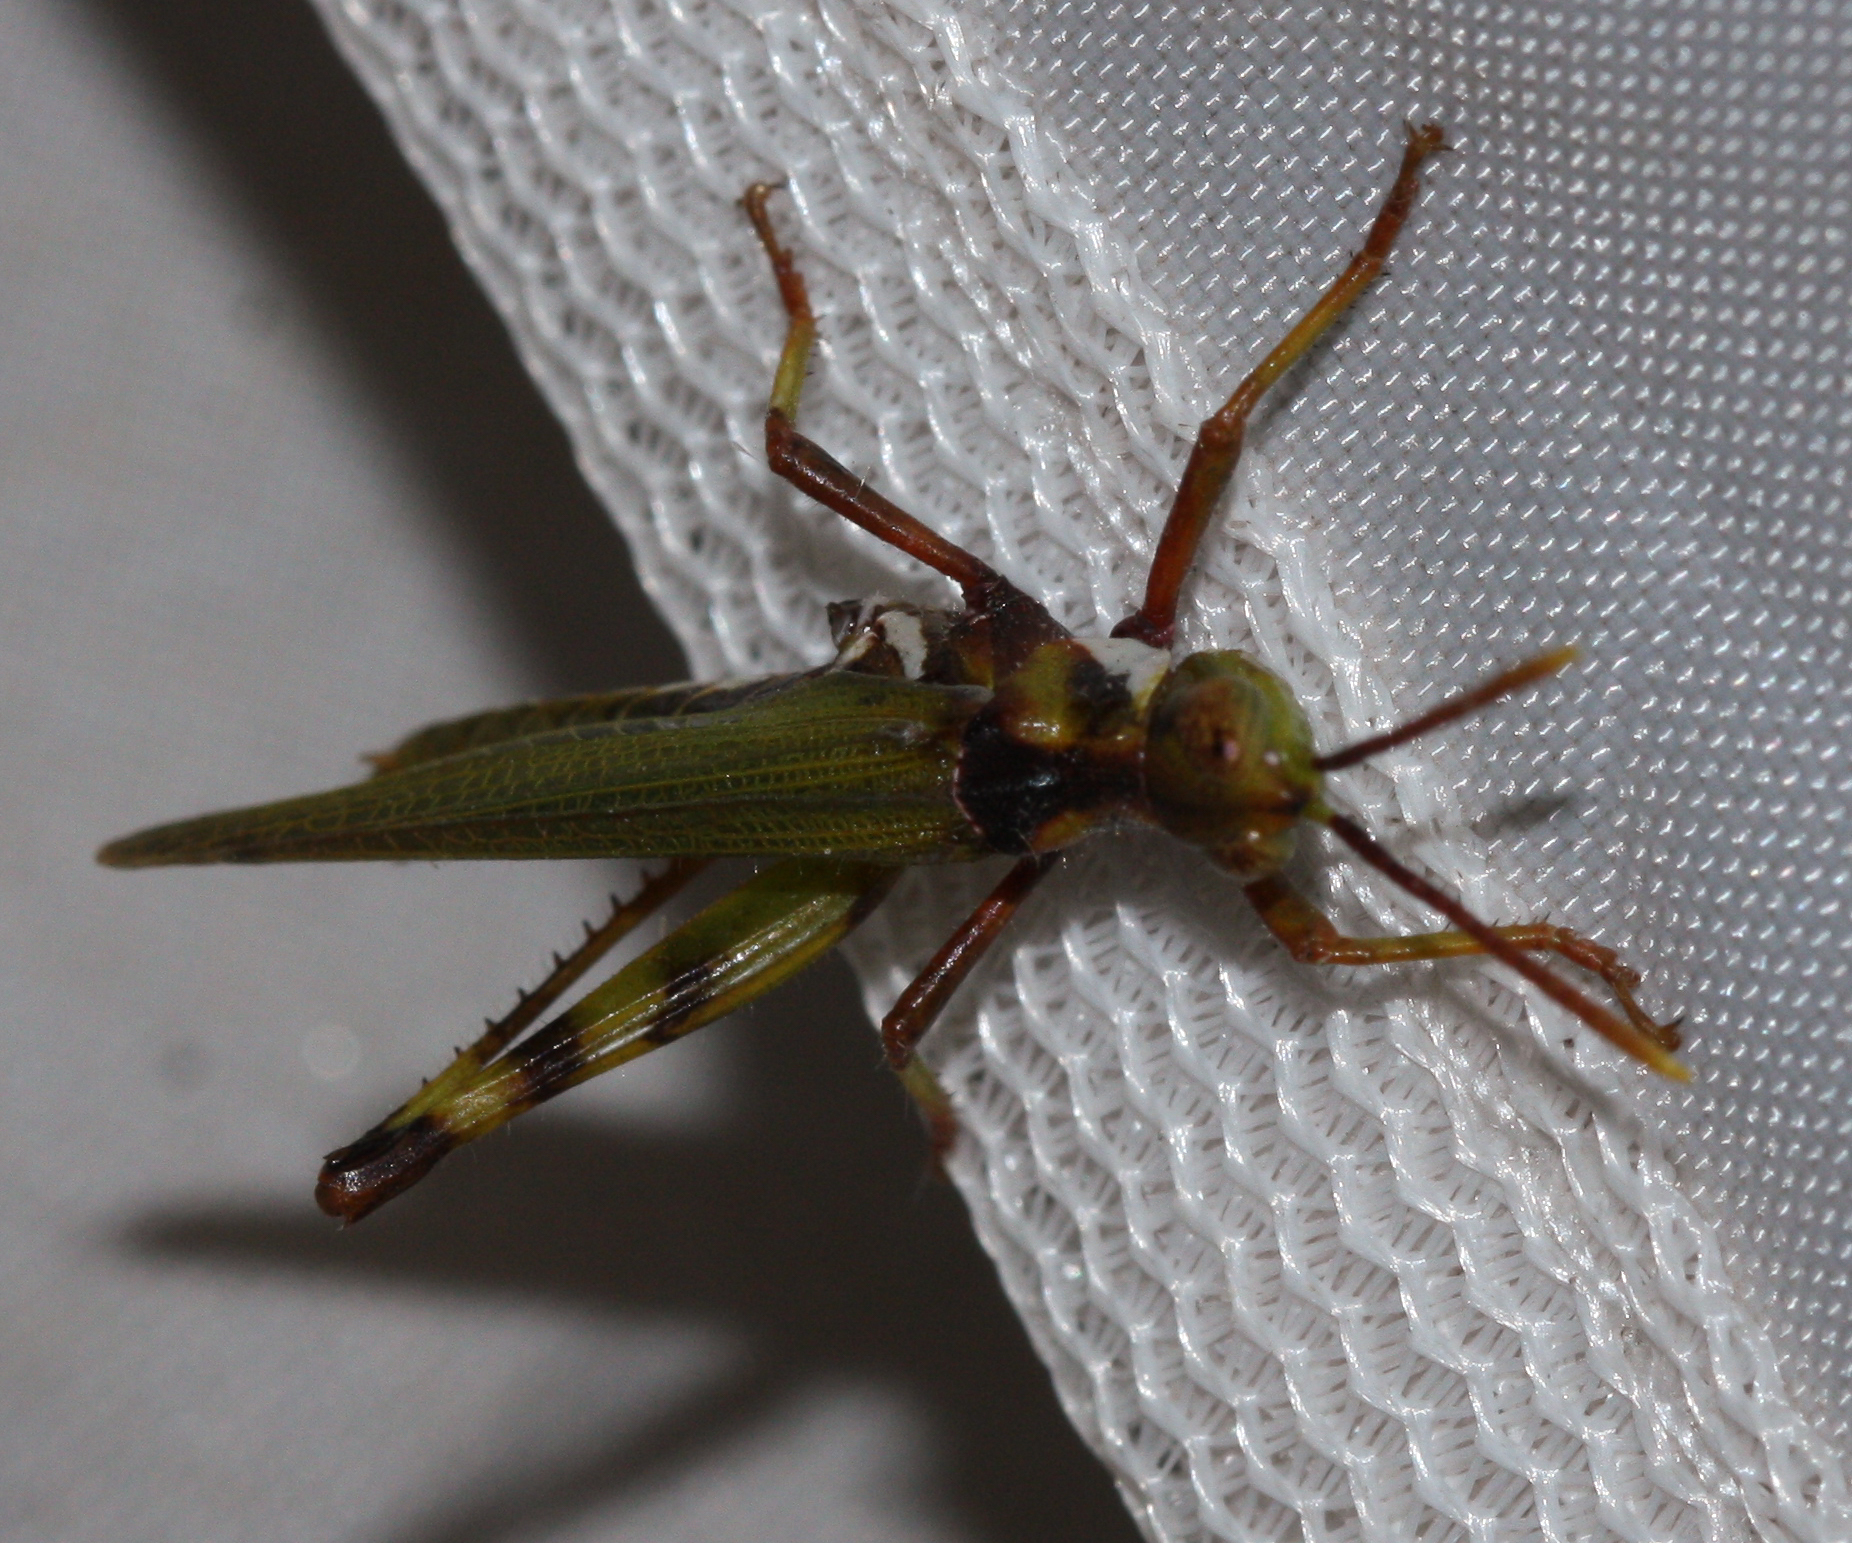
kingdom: Animalia
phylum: Arthropoda
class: Insecta
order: Orthoptera
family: Acrididae
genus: Bootettix
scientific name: Bootettix argentatus
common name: Creosote bush grasshopper
